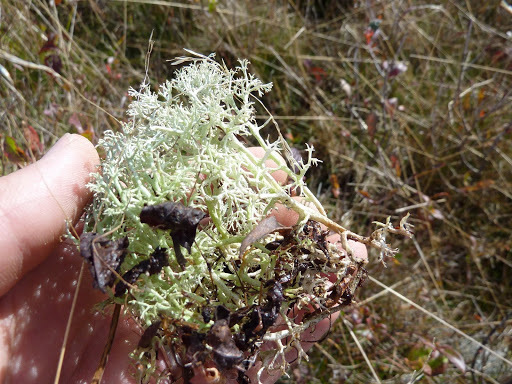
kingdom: Fungi
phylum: Ascomycota
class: Lecanoromycetes
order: Lecanorales
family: Cladoniaceae
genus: Cladonia
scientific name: Cladonia rangiferina
